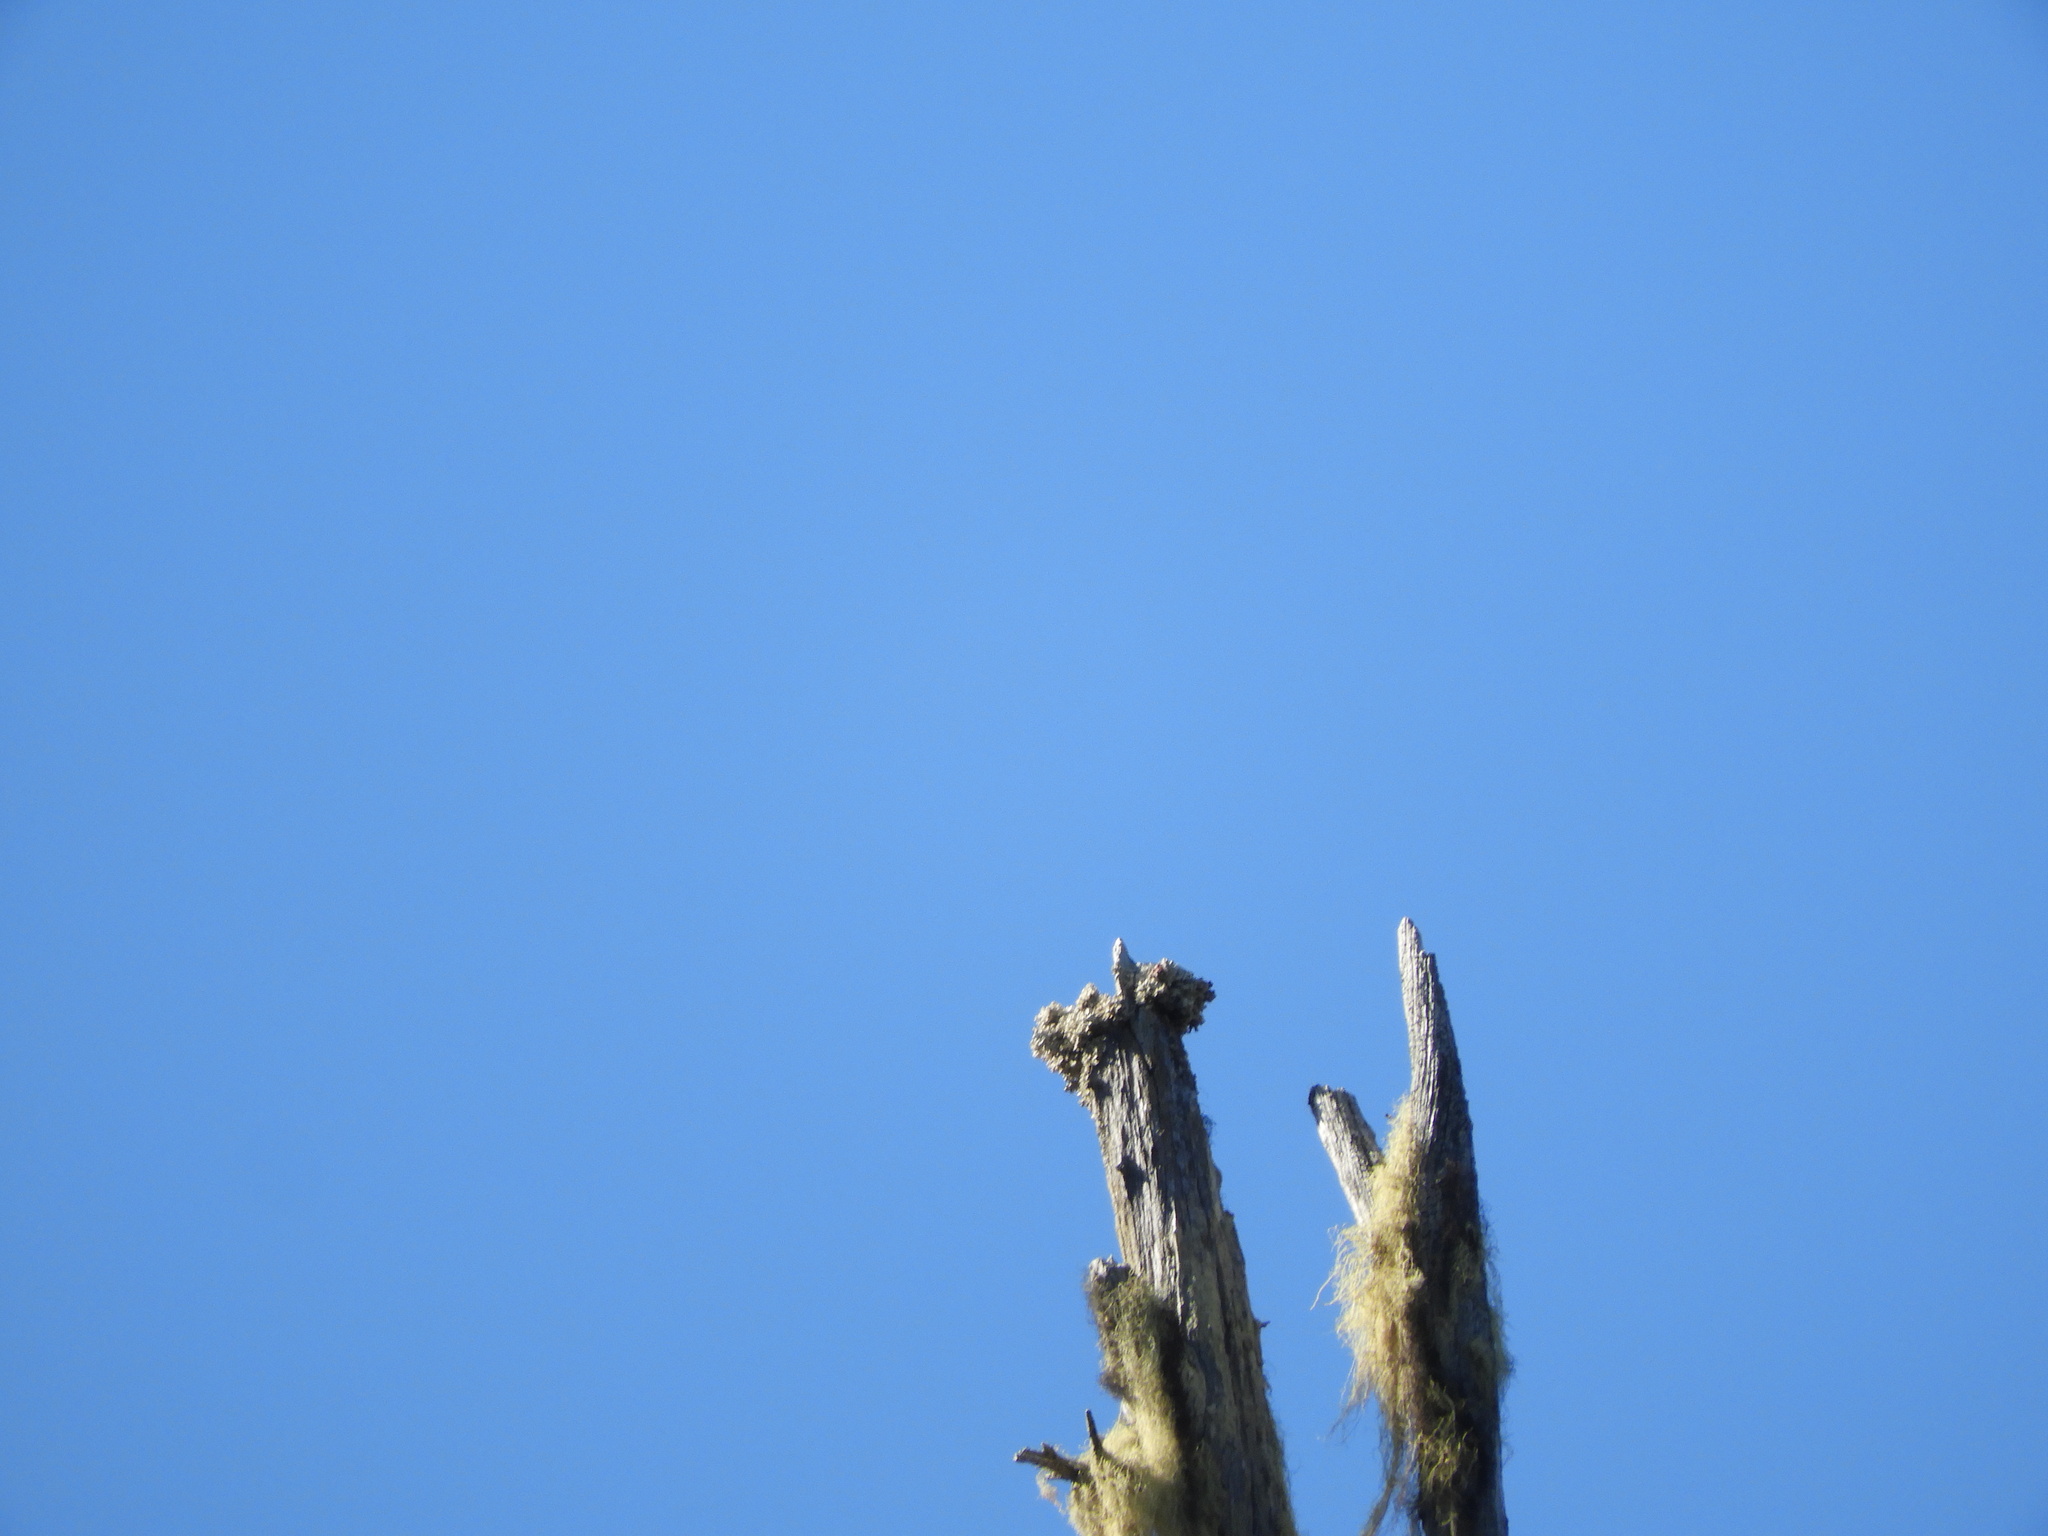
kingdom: Fungi
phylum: Ascomycota
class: Lecanoromycetes
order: Caliciales
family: Caliciaceae
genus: Acroscyphus
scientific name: Acroscyphus sphaerophoroides
